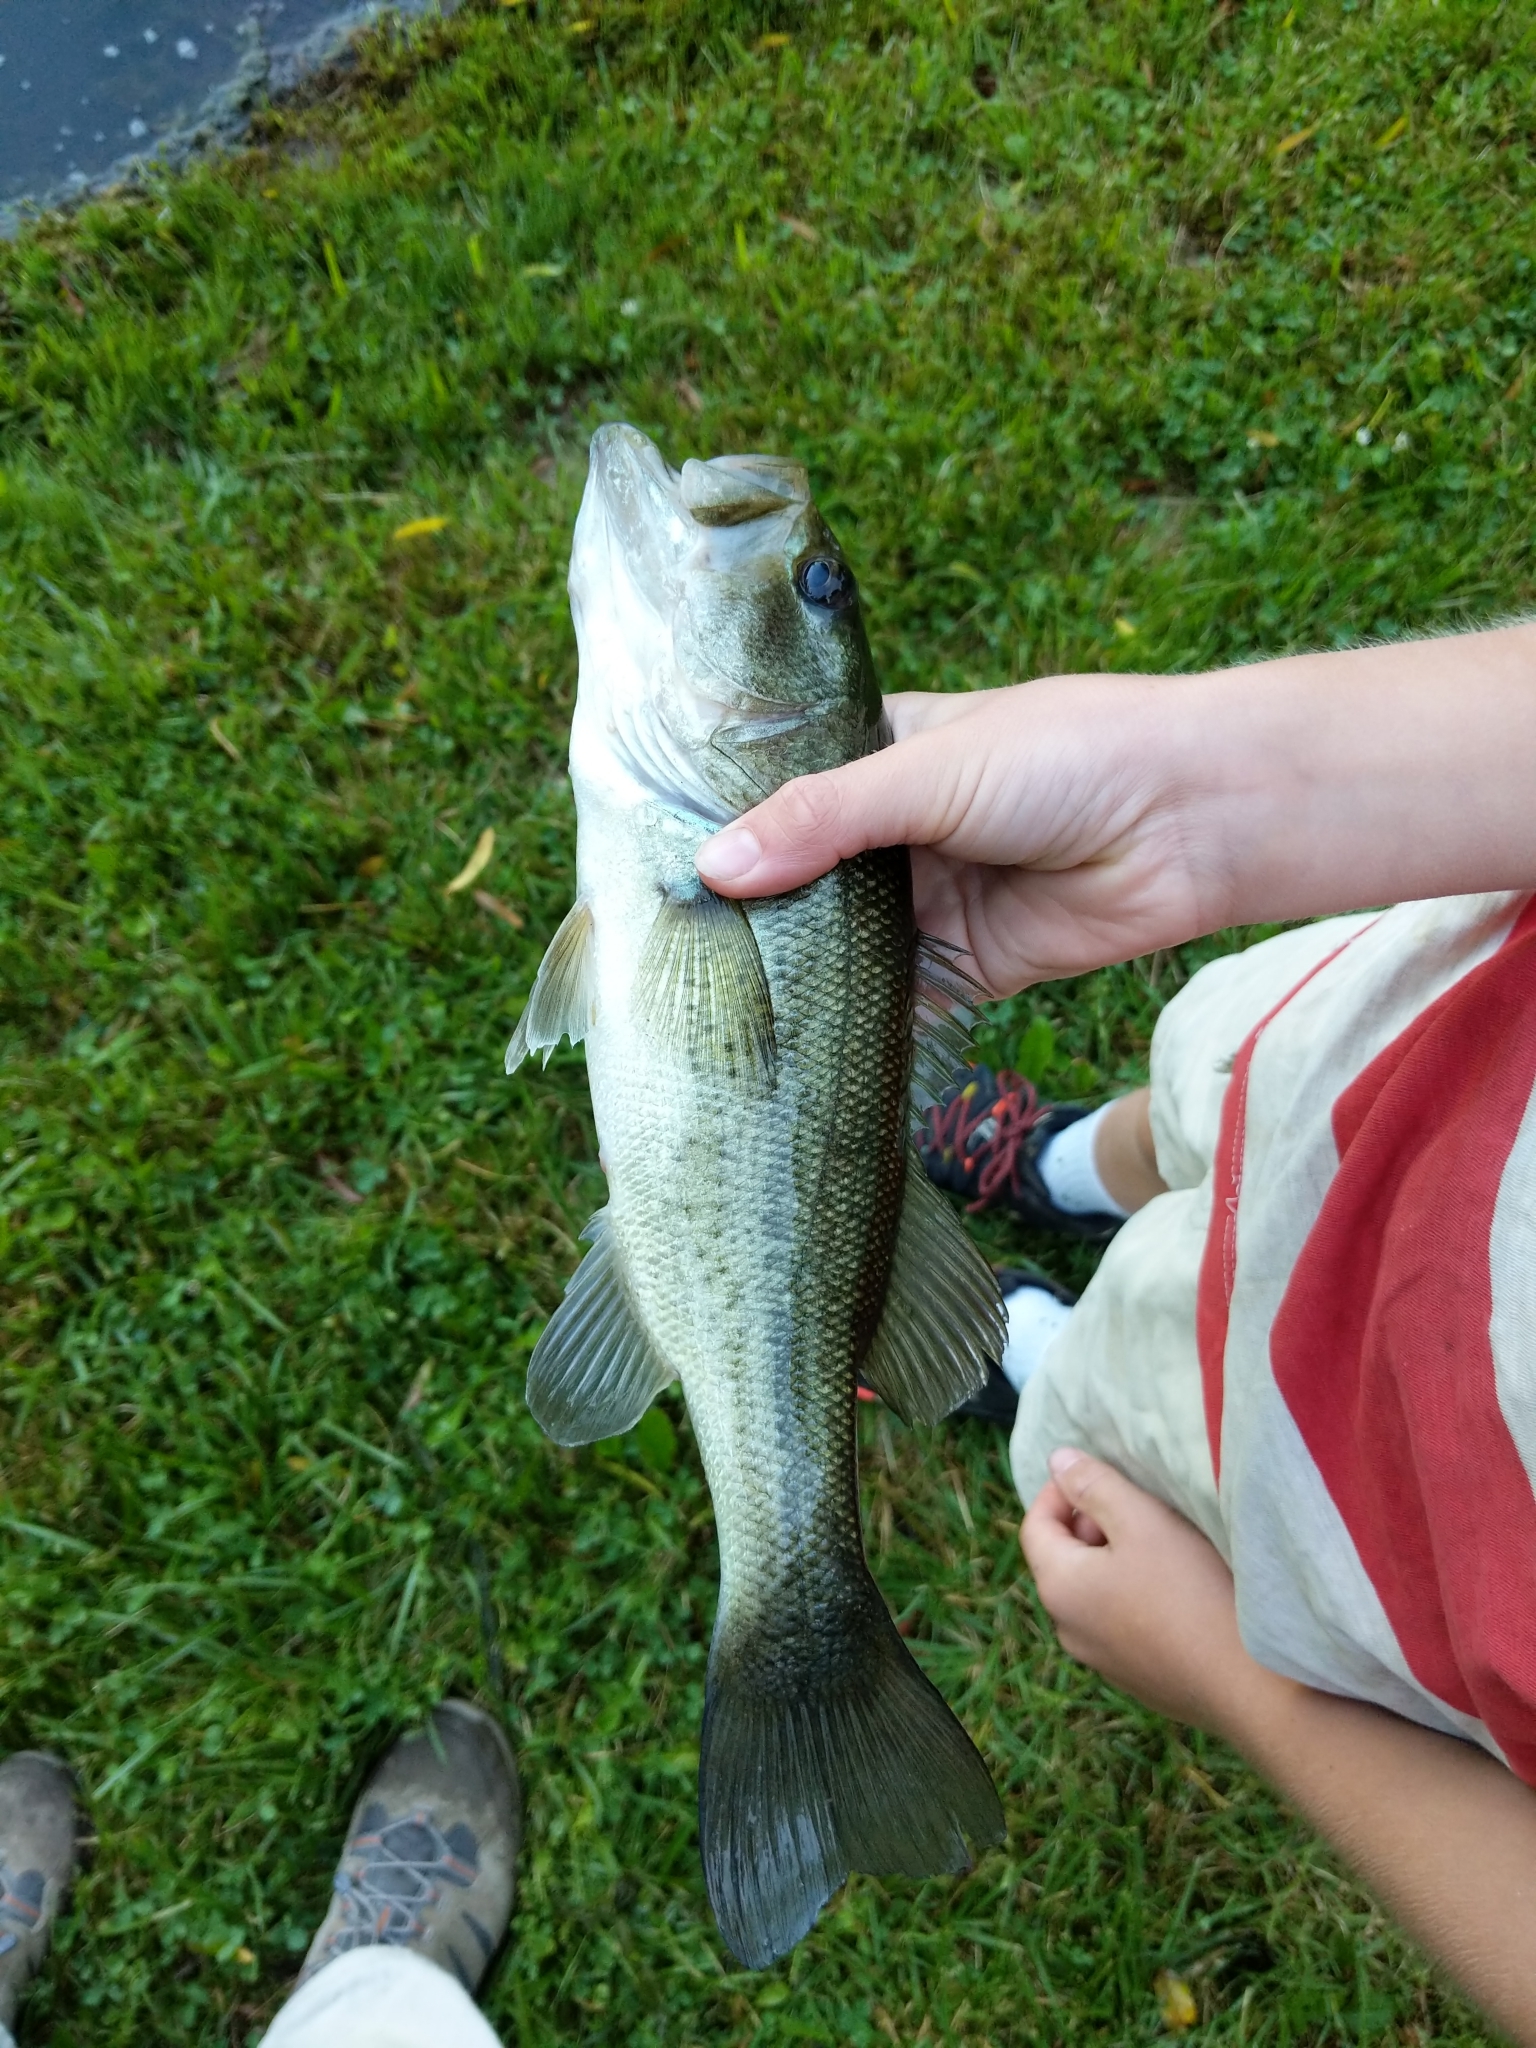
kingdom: Animalia
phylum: Chordata
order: Perciformes
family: Centrarchidae
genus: Micropterus
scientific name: Micropterus
